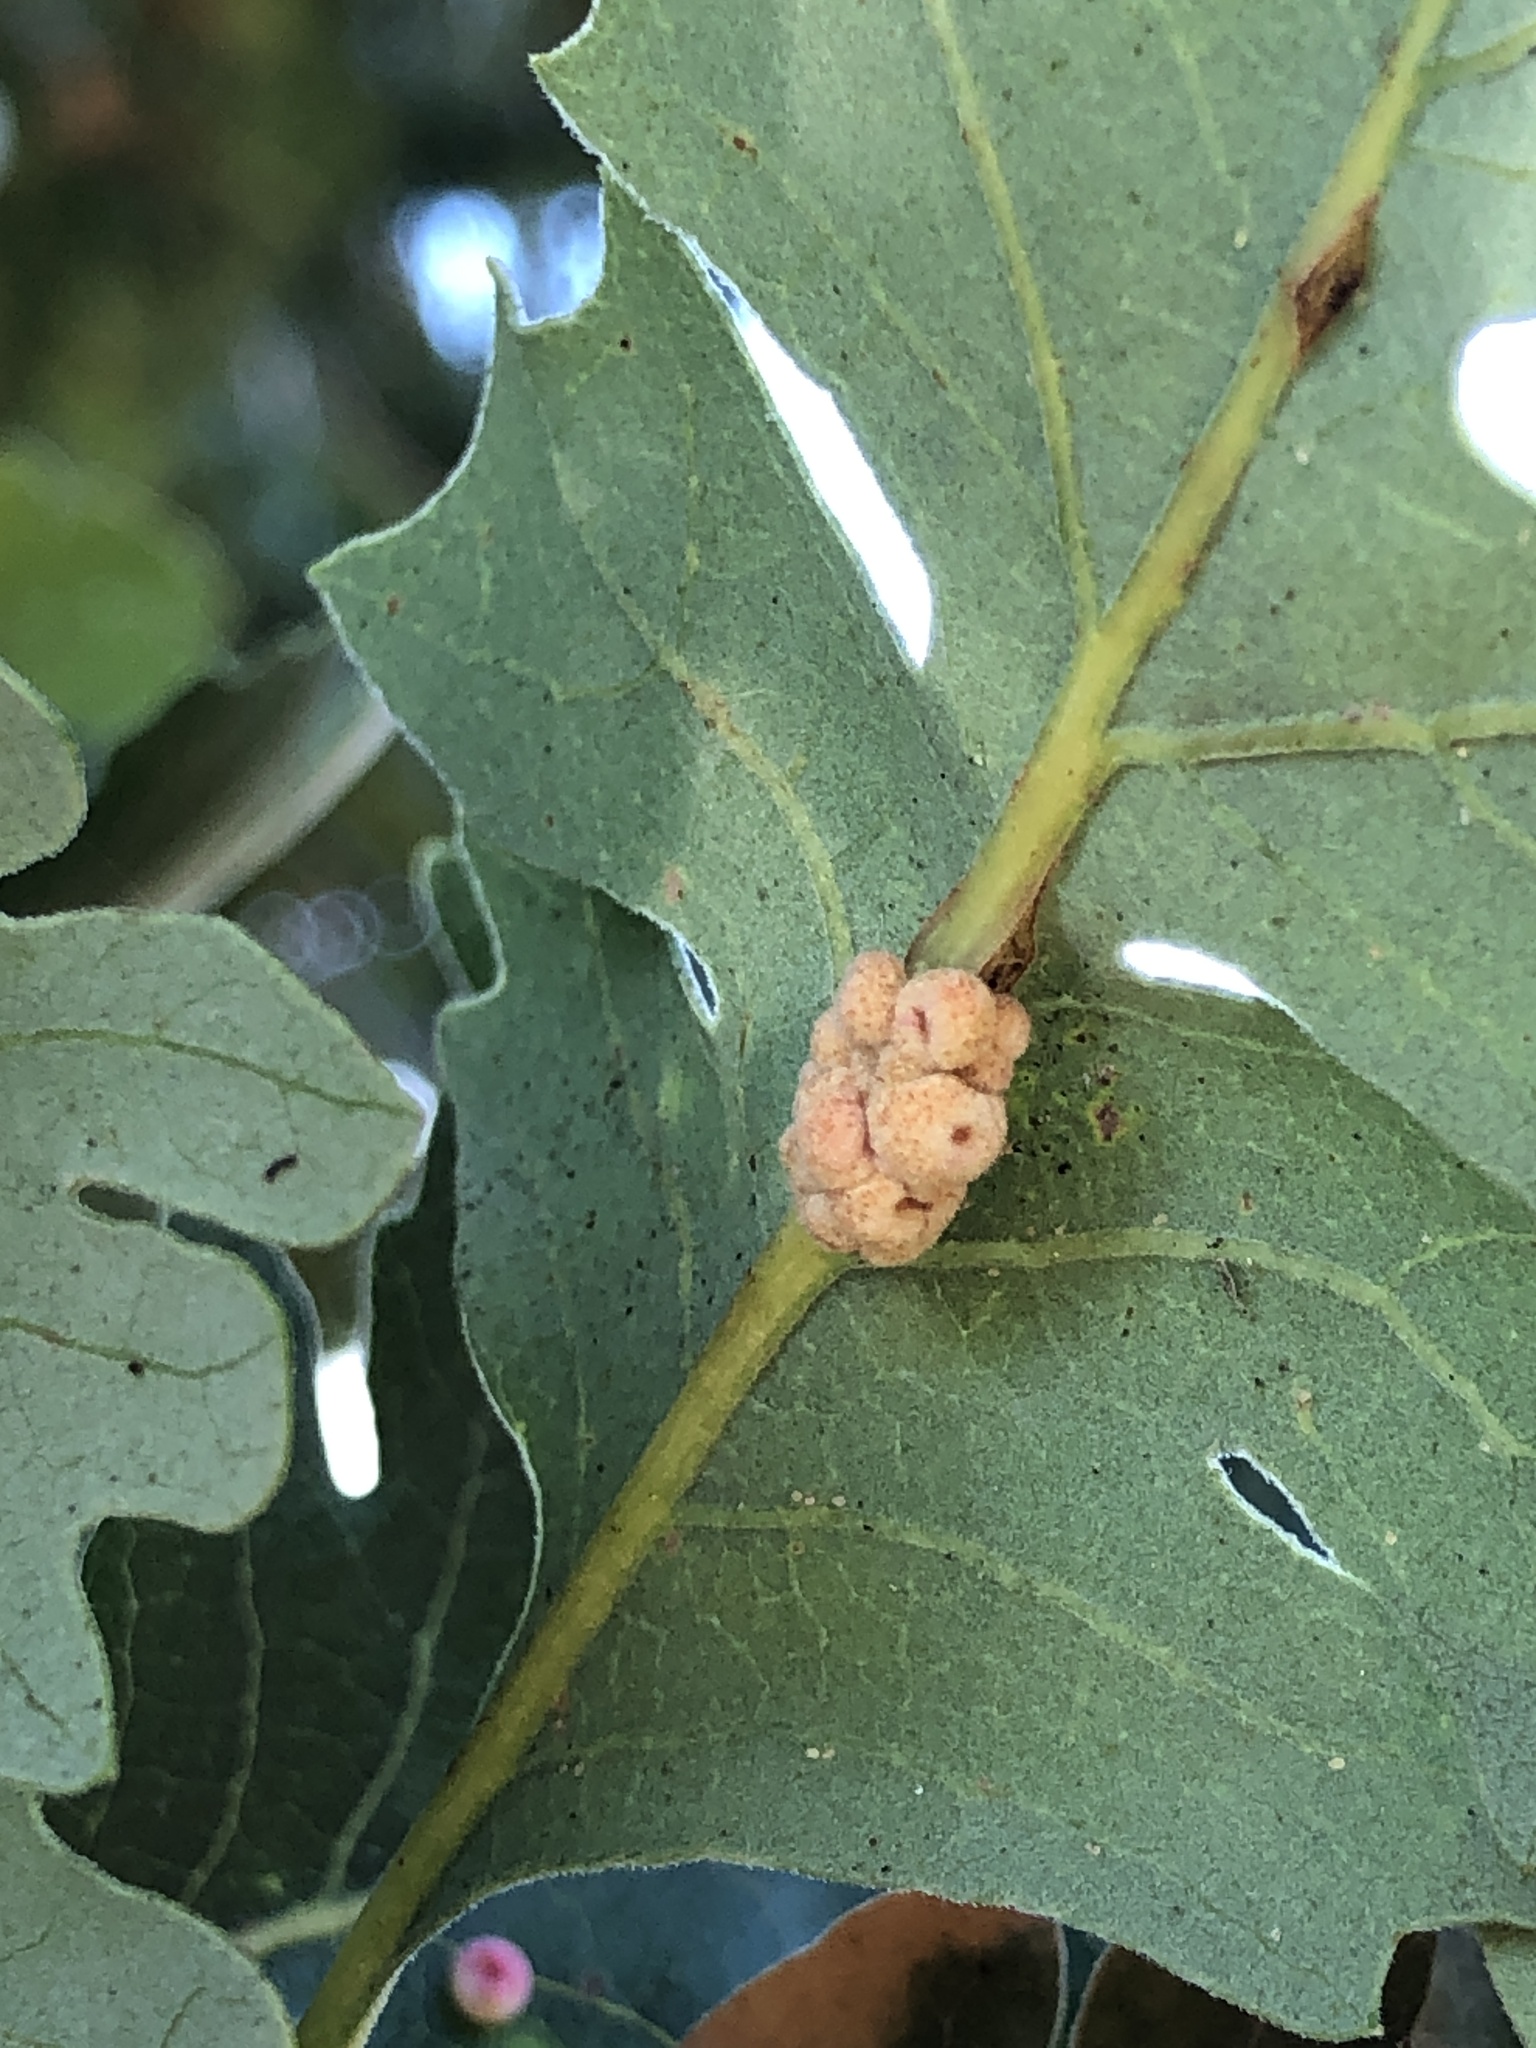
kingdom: Animalia
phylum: Arthropoda
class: Insecta
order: Hymenoptera
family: Cynipidae
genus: Andricus
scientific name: Andricus
